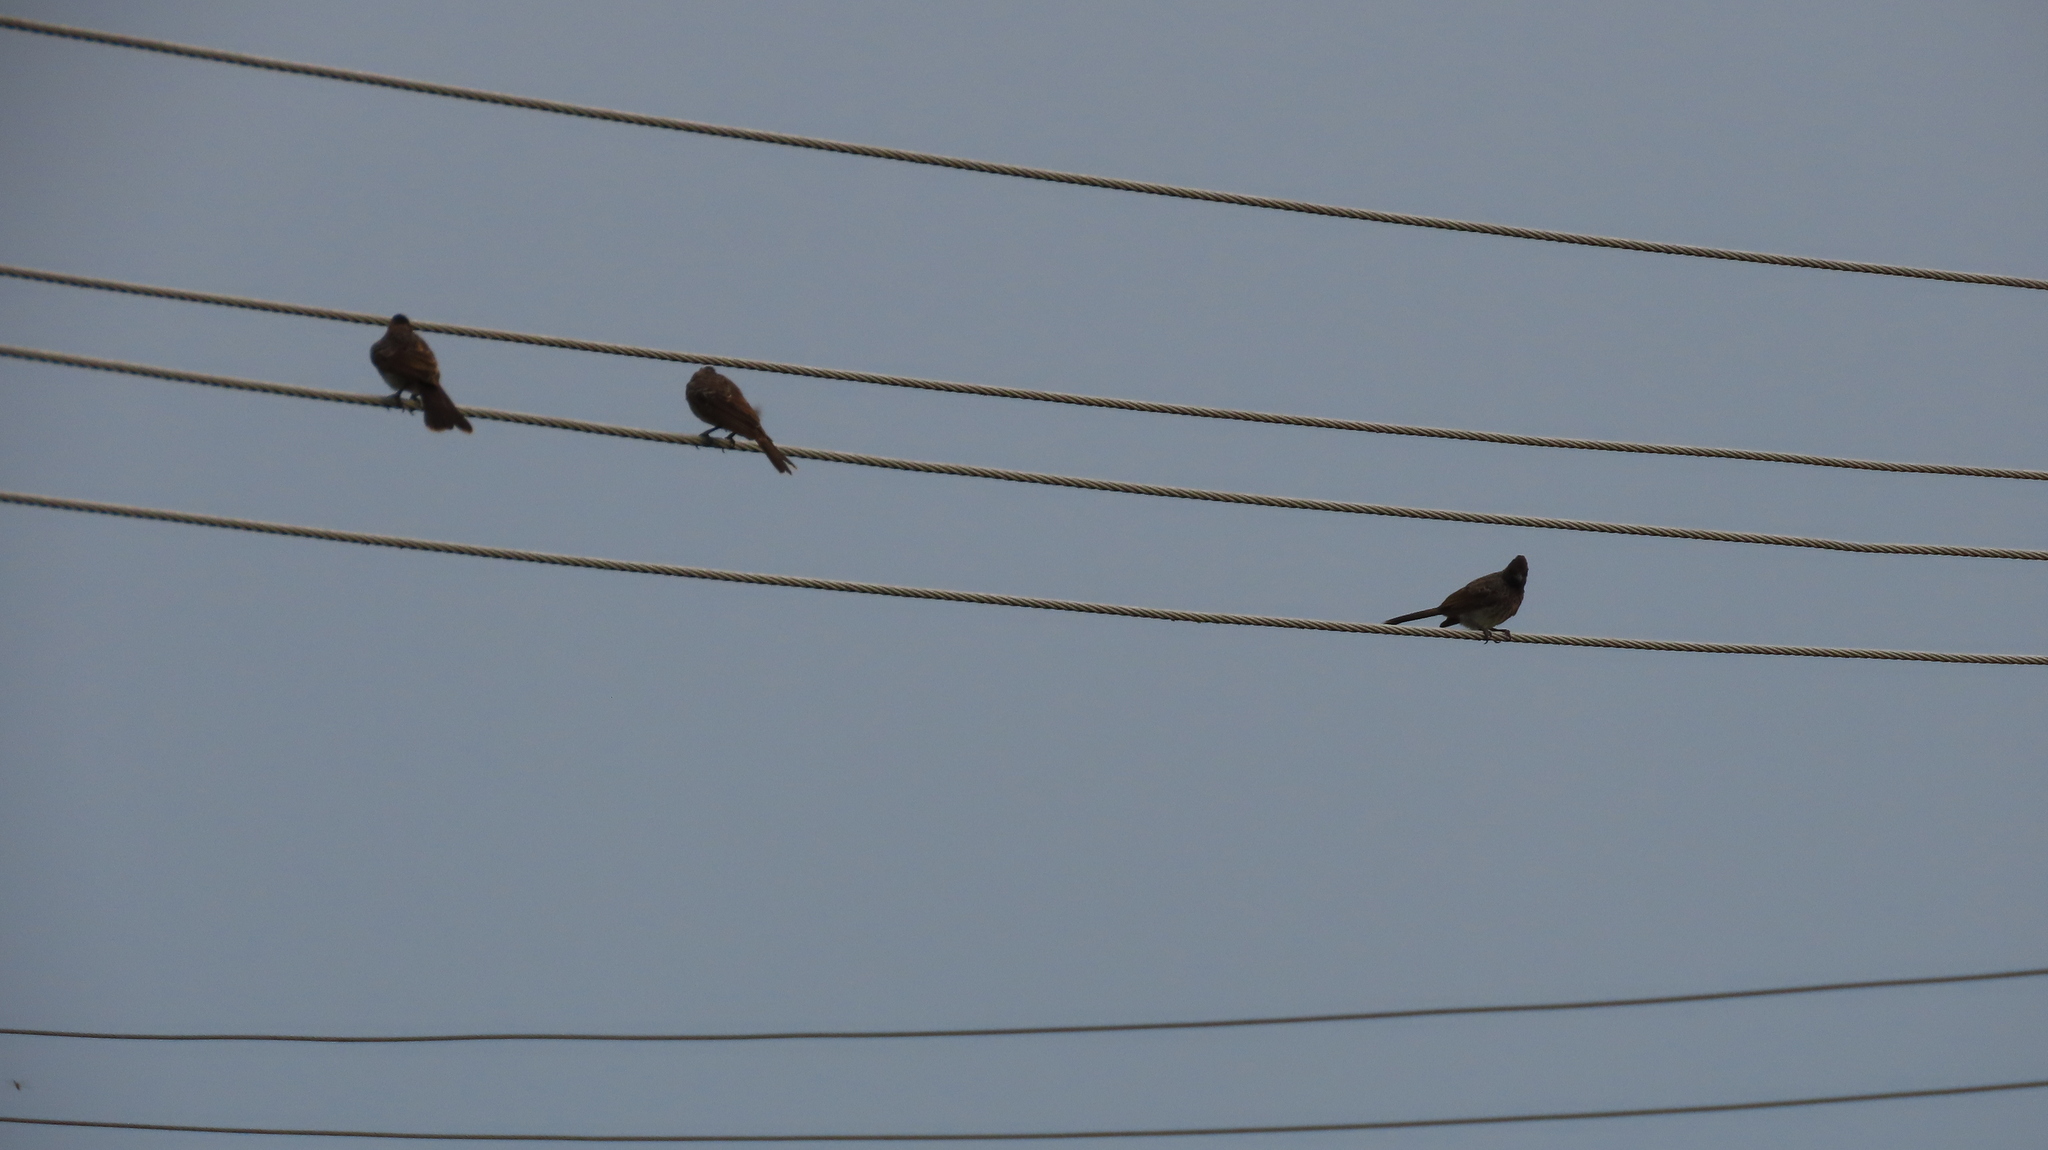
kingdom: Animalia
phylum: Chordata
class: Aves
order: Passeriformes
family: Pycnonotidae
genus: Pycnonotus
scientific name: Pycnonotus cafer
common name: Red-vented bulbul
